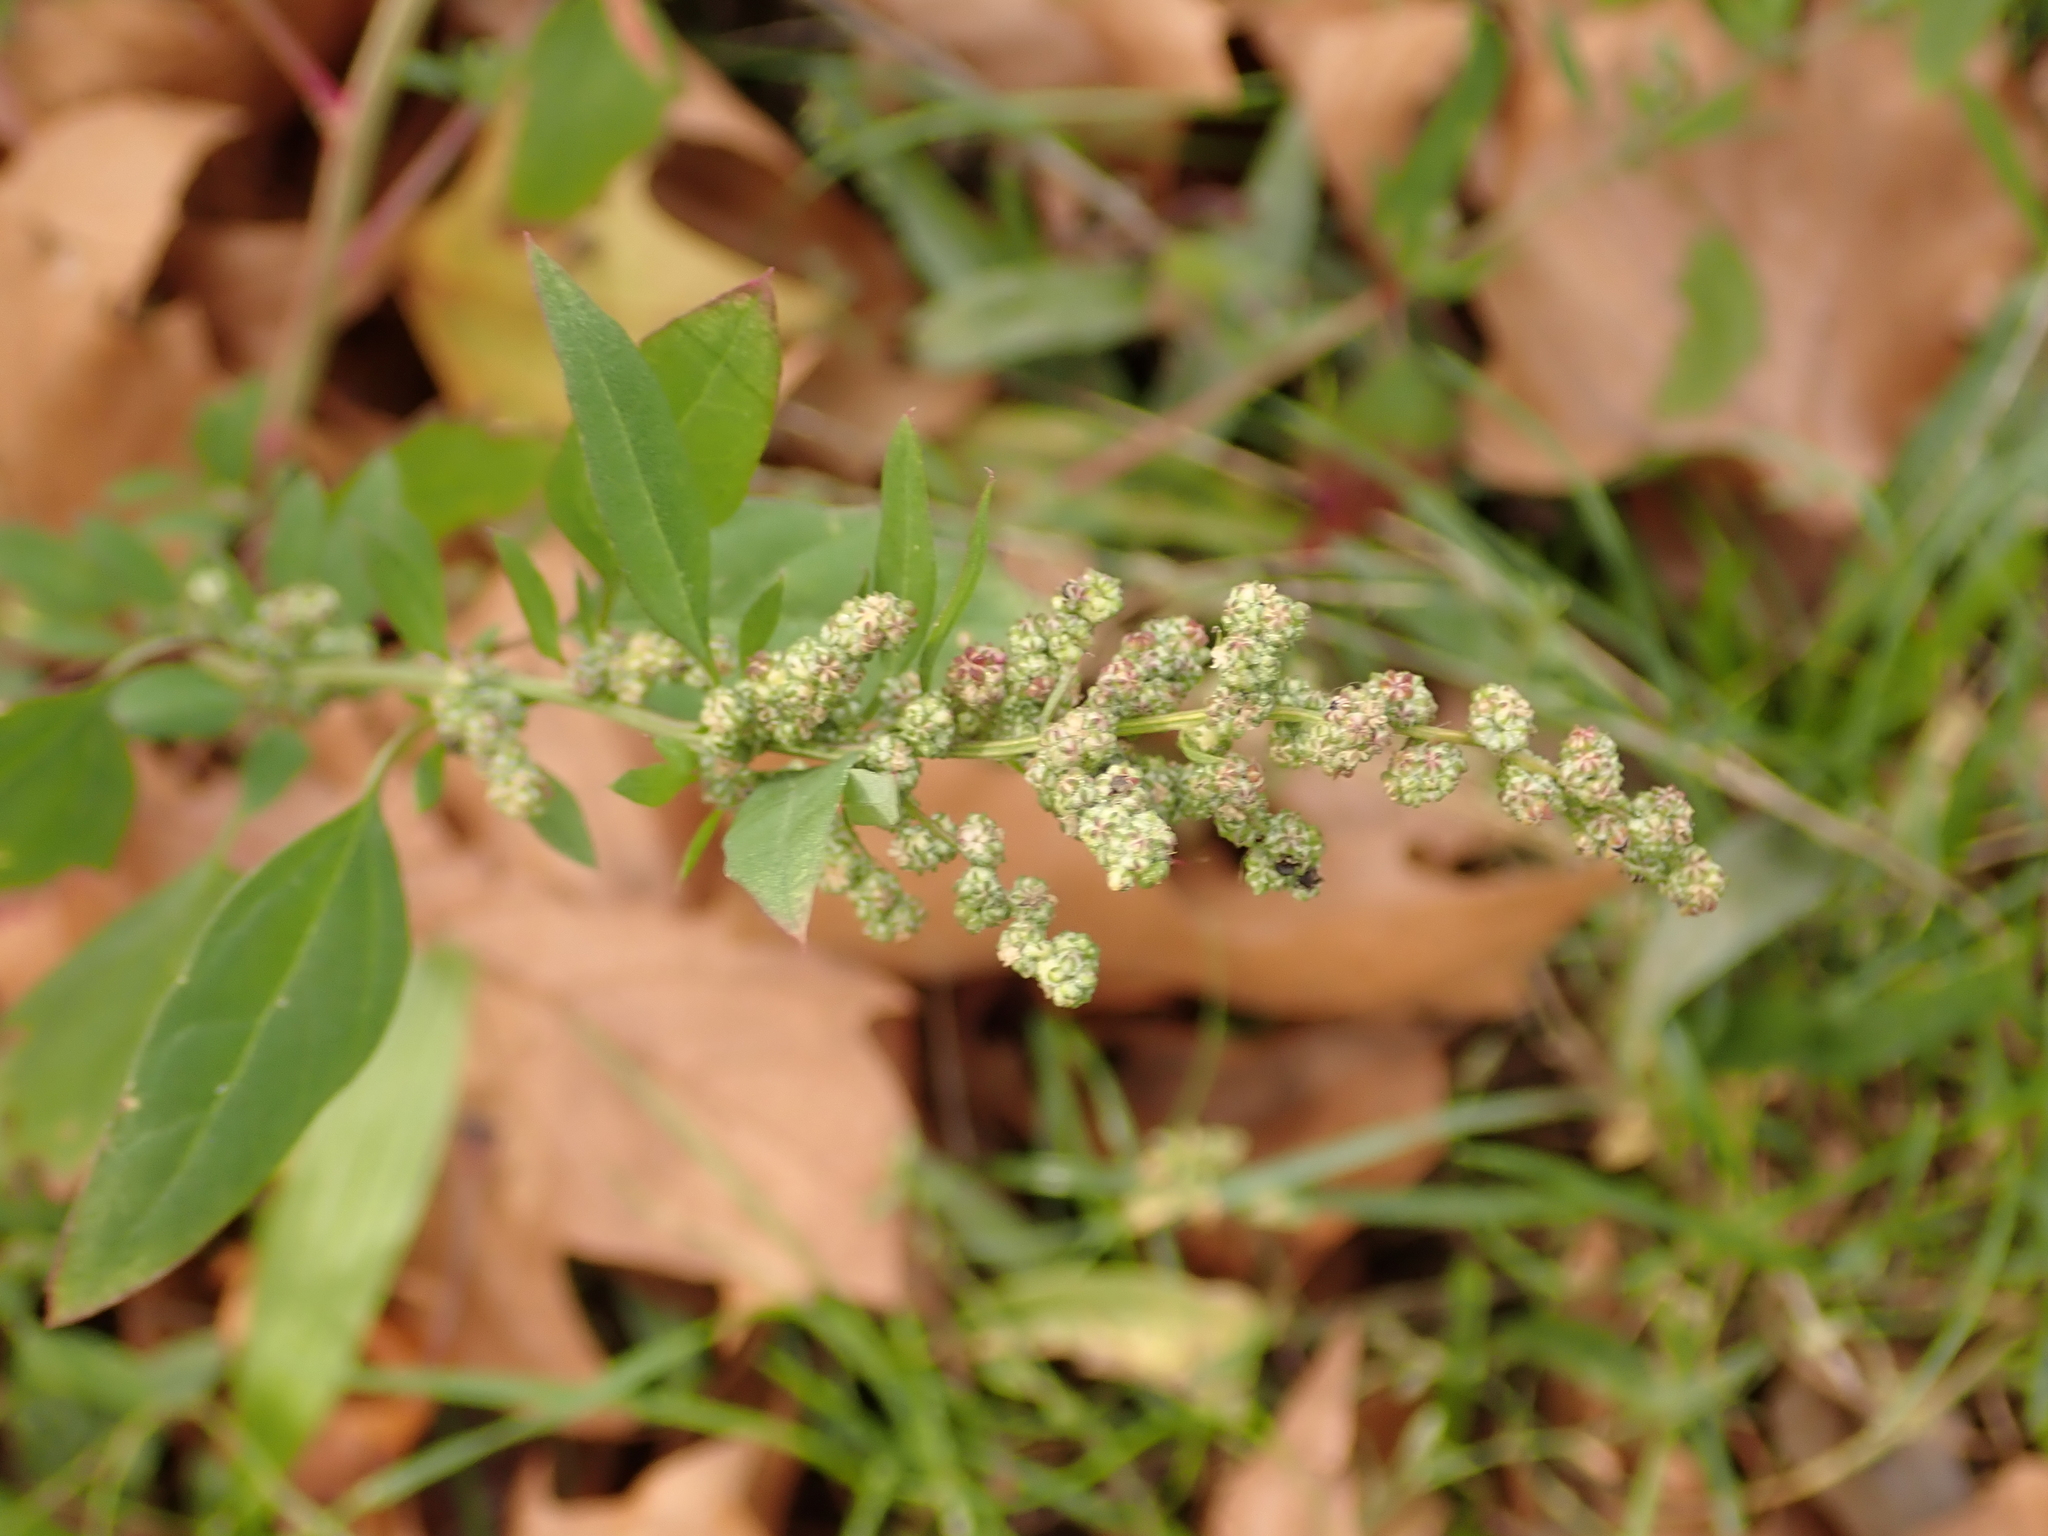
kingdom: Plantae
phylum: Tracheophyta
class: Magnoliopsida
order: Caryophyllales
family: Amaranthaceae
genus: Chenopodium
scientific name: Chenopodium album
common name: Fat-hen
